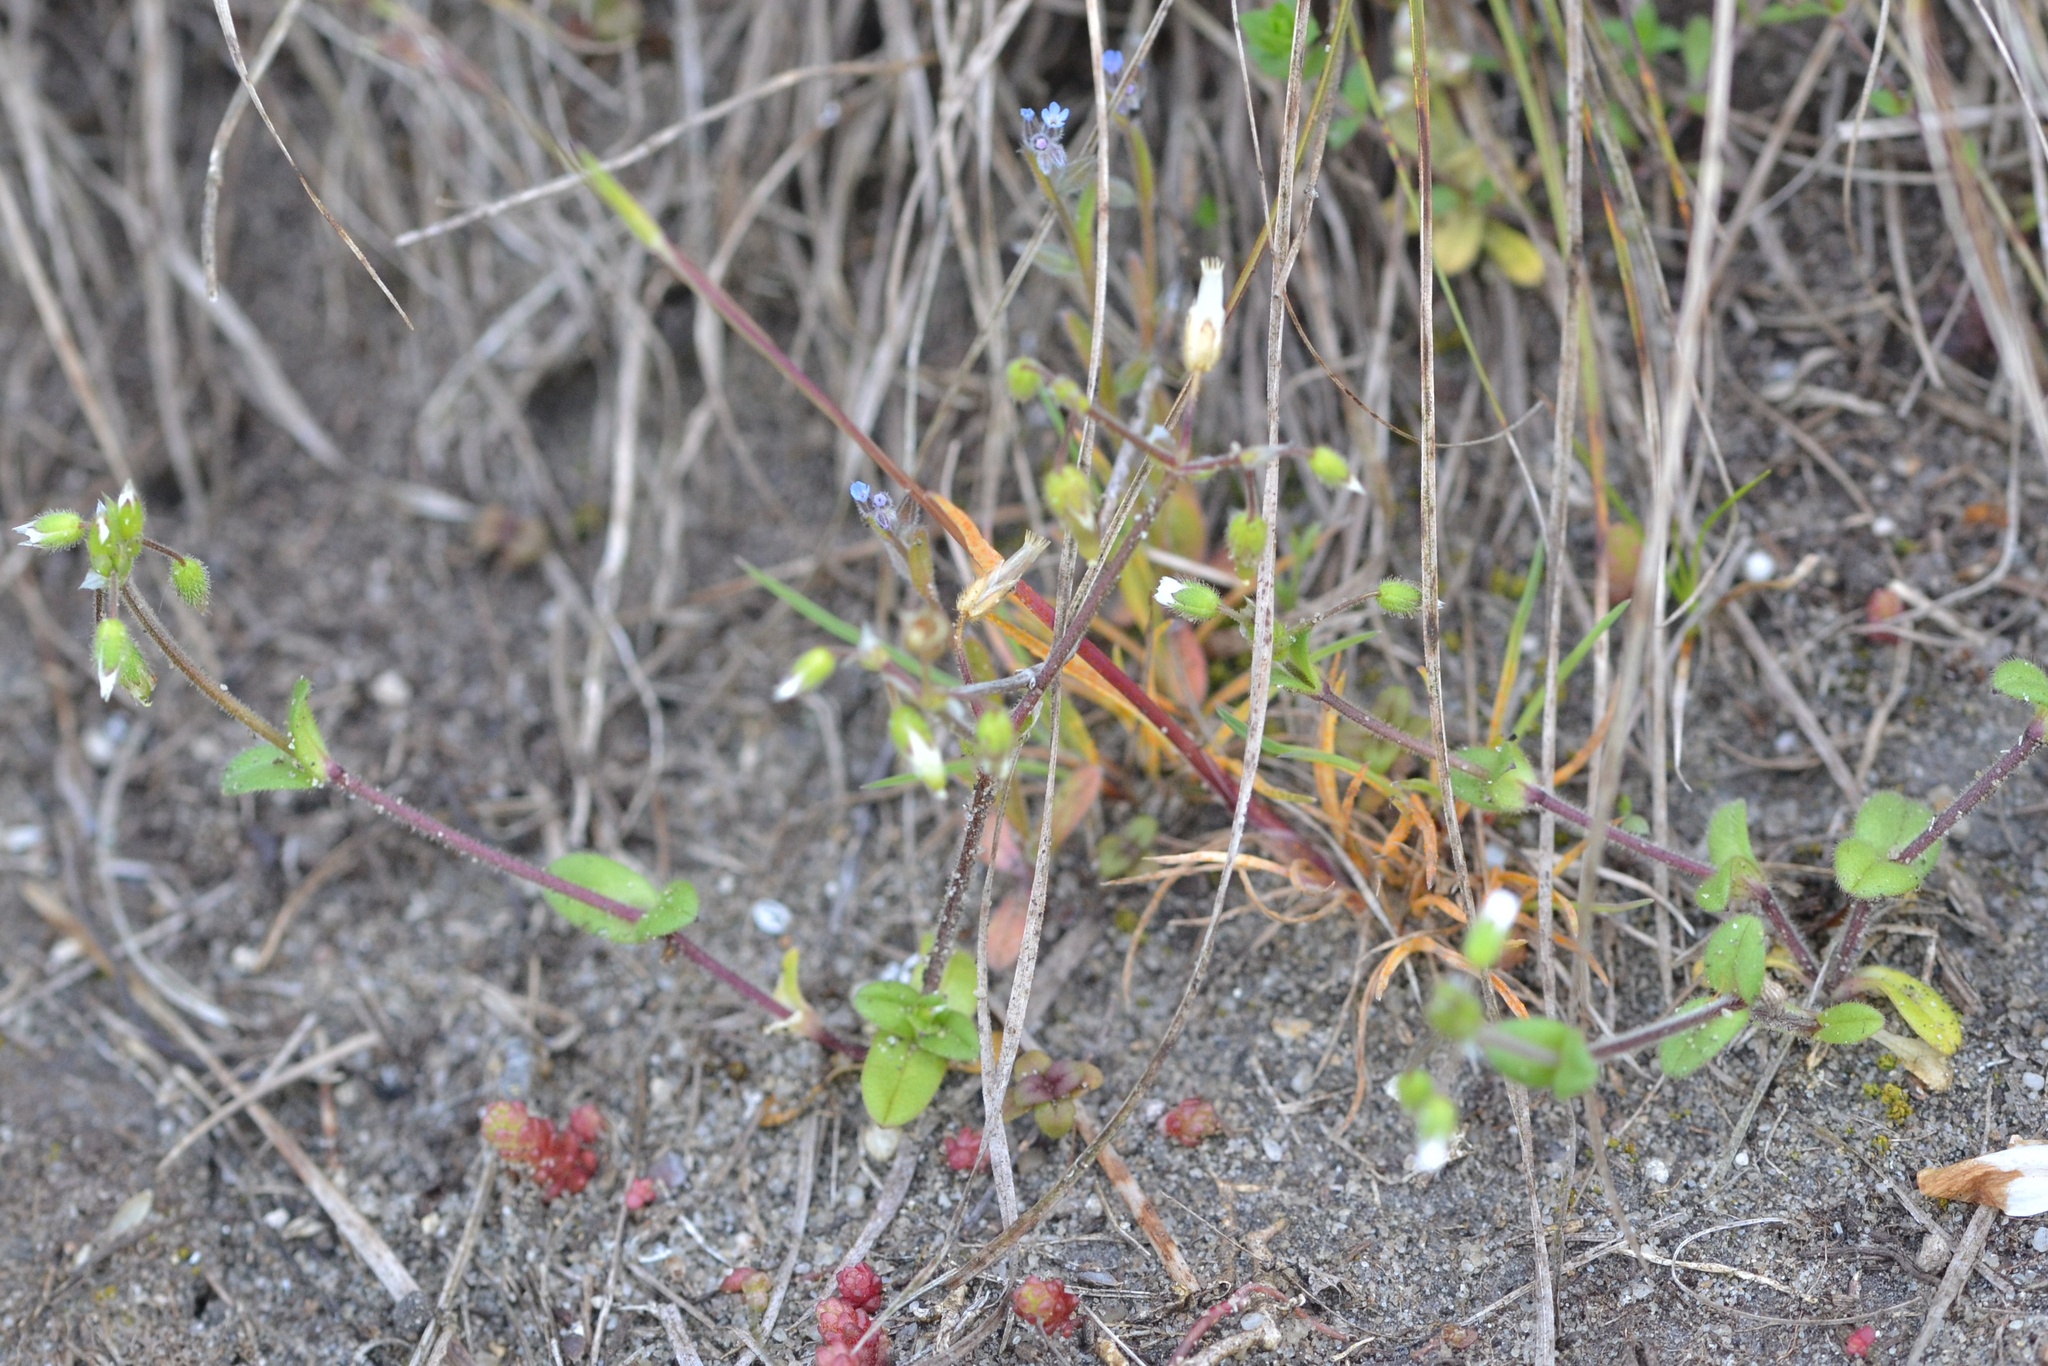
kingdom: Plantae
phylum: Tracheophyta
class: Magnoliopsida
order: Caryophyllales
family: Caryophyllaceae
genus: Cerastium
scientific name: Cerastium semidecandrum
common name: Little mouse-ear
